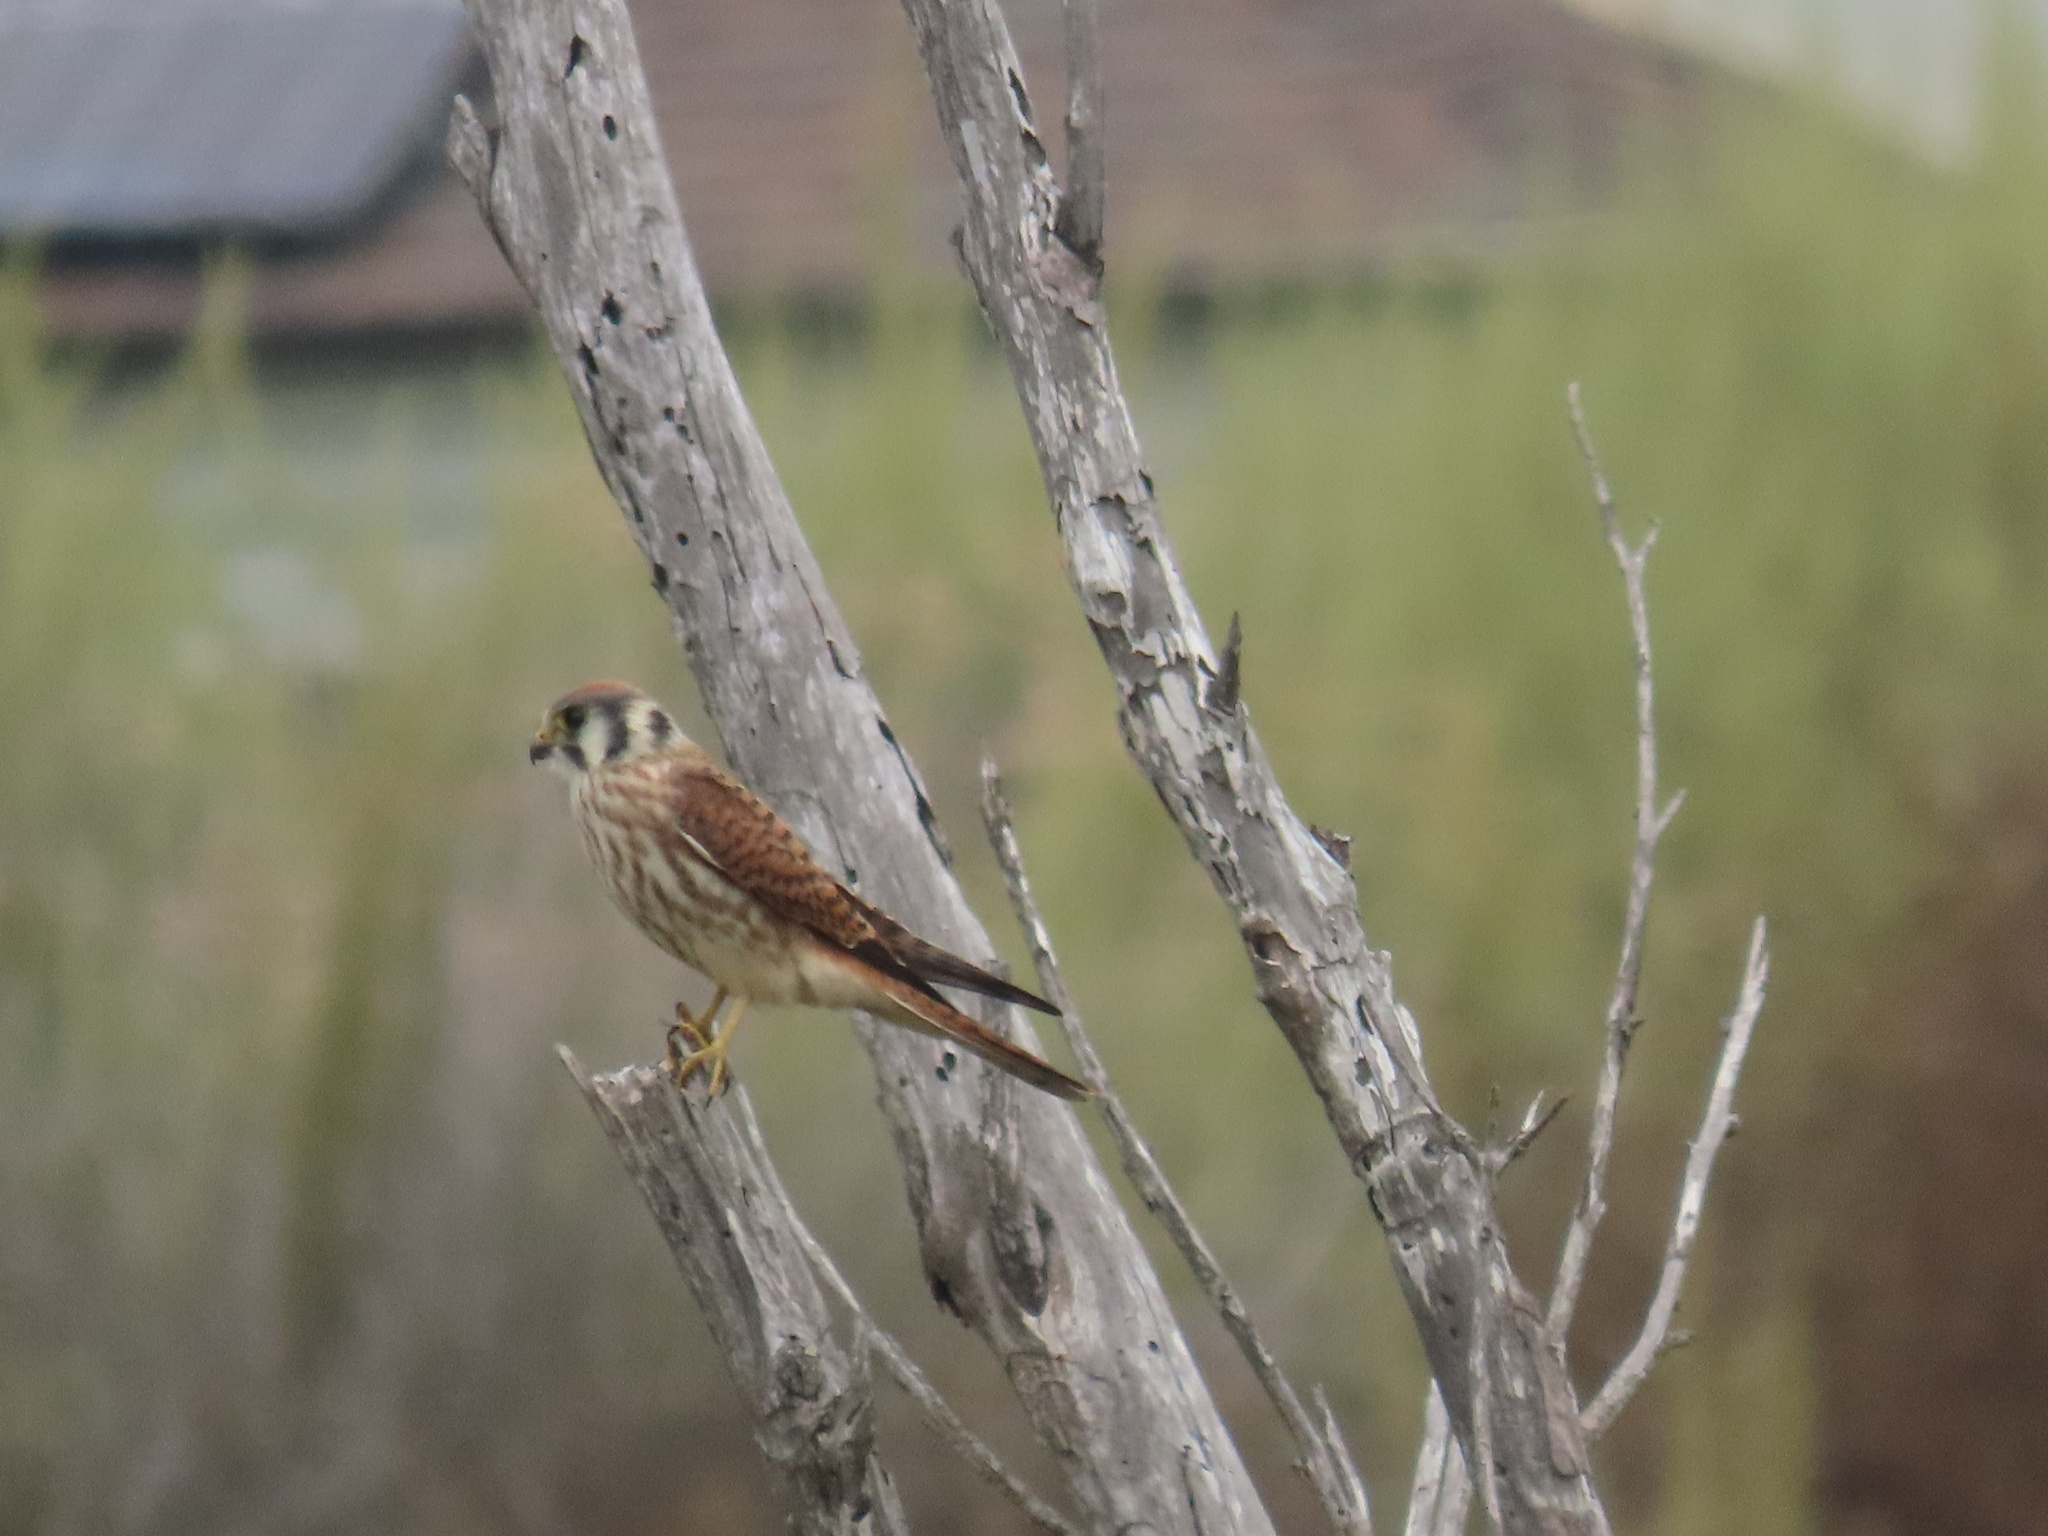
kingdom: Animalia
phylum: Chordata
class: Aves
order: Falconiformes
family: Falconidae
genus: Falco
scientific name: Falco sparverius
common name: American kestrel
